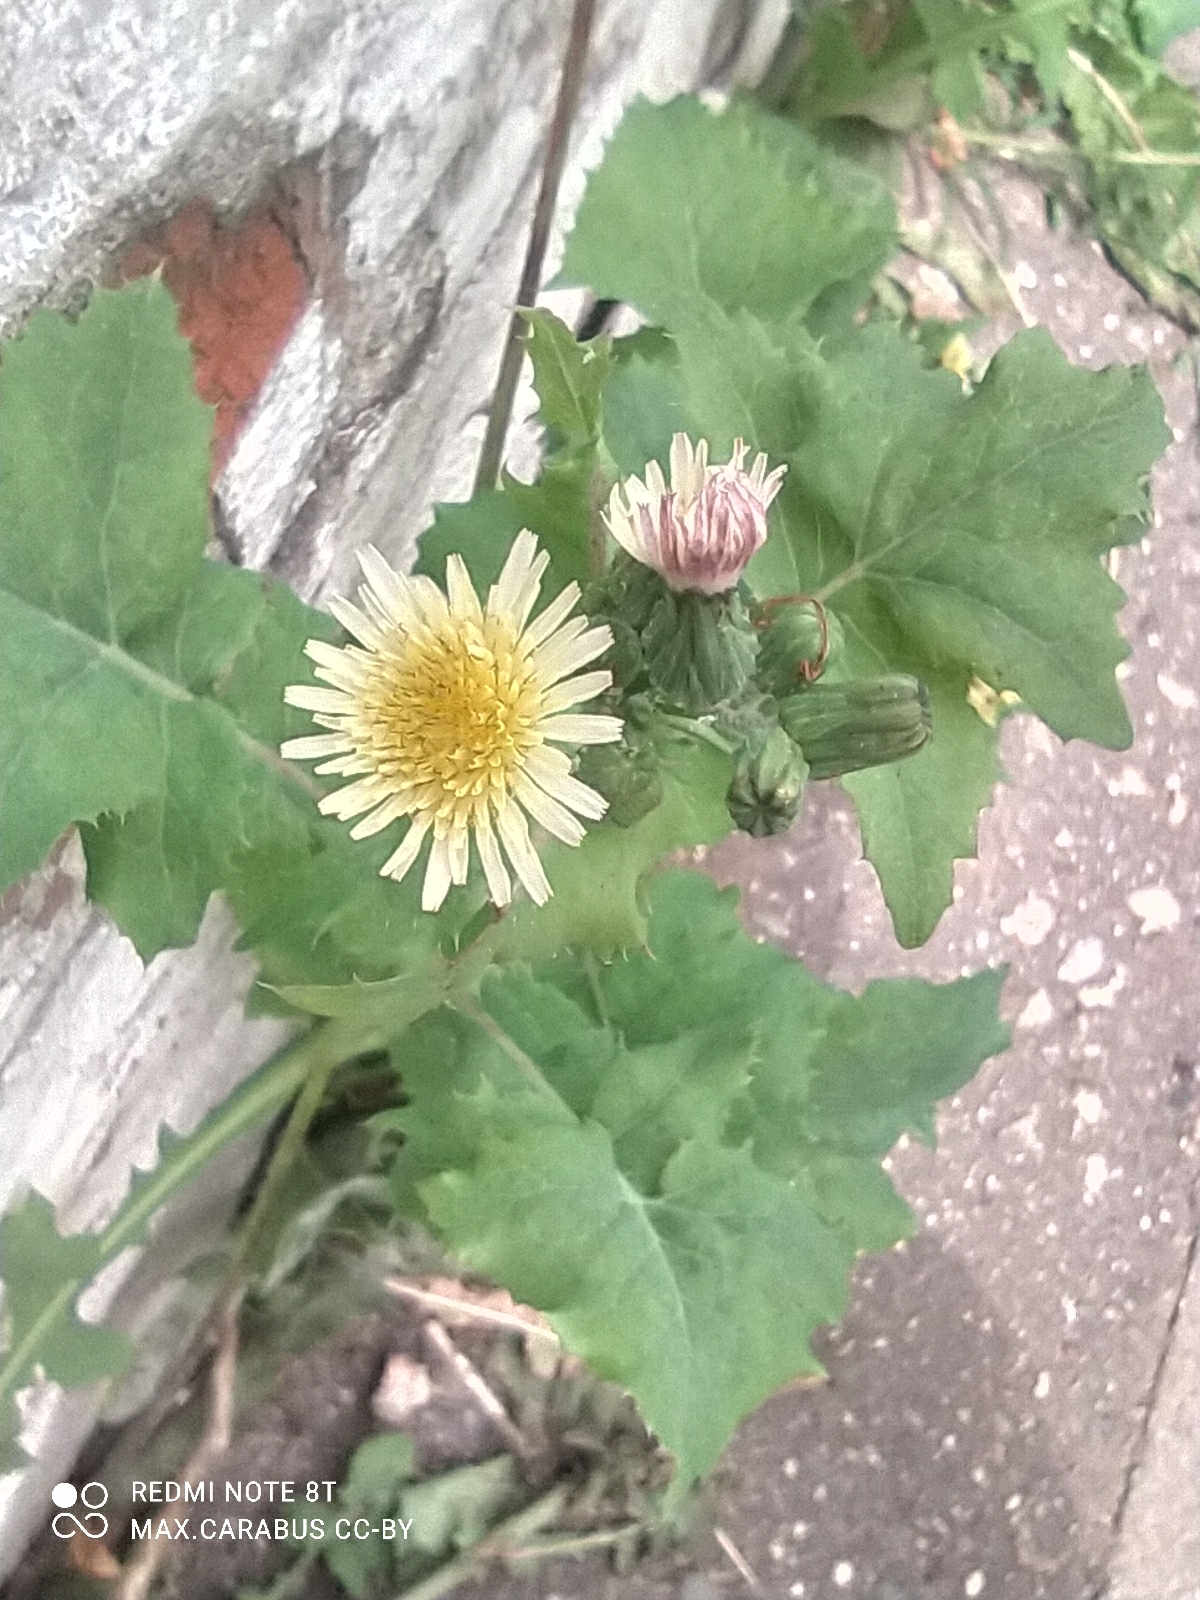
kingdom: Plantae
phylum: Tracheophyta
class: Magnoliopsida
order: Asterales
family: Asteraceae
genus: Sonchus
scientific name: Sonchus oleraceus
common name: Common sowthistle
